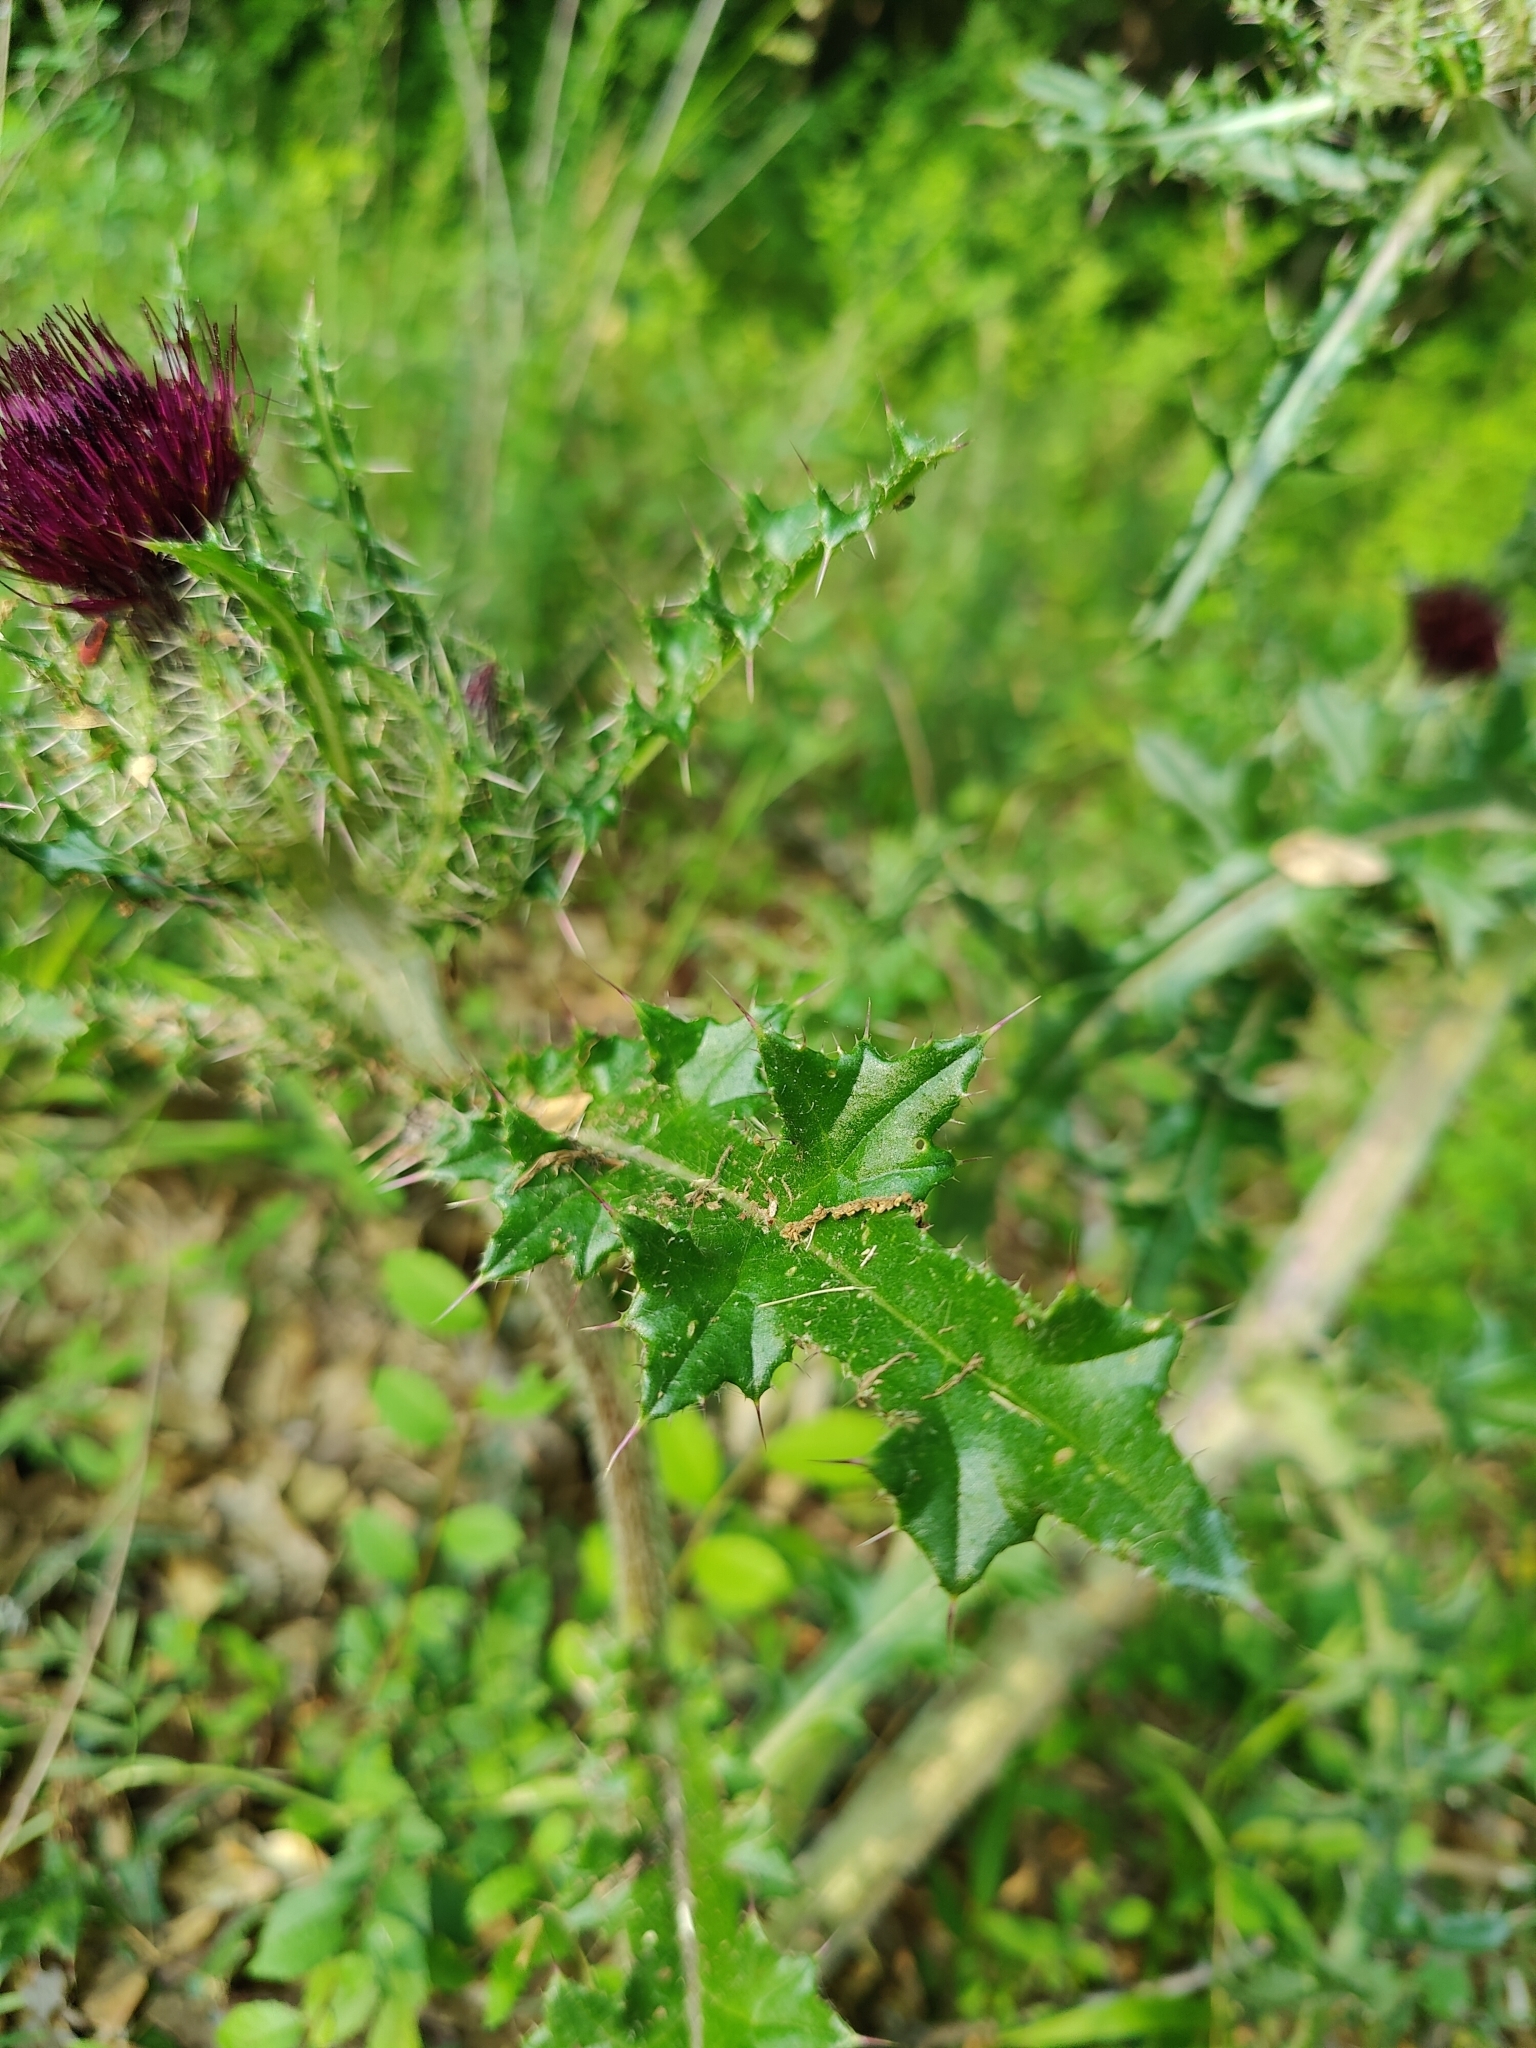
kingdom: Plantae
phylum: Tracheophyta
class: Magnoliopsida
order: Asterales
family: Asteraceae
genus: Cirsium
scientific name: Cirsium horridulum
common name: Bristly thistle
